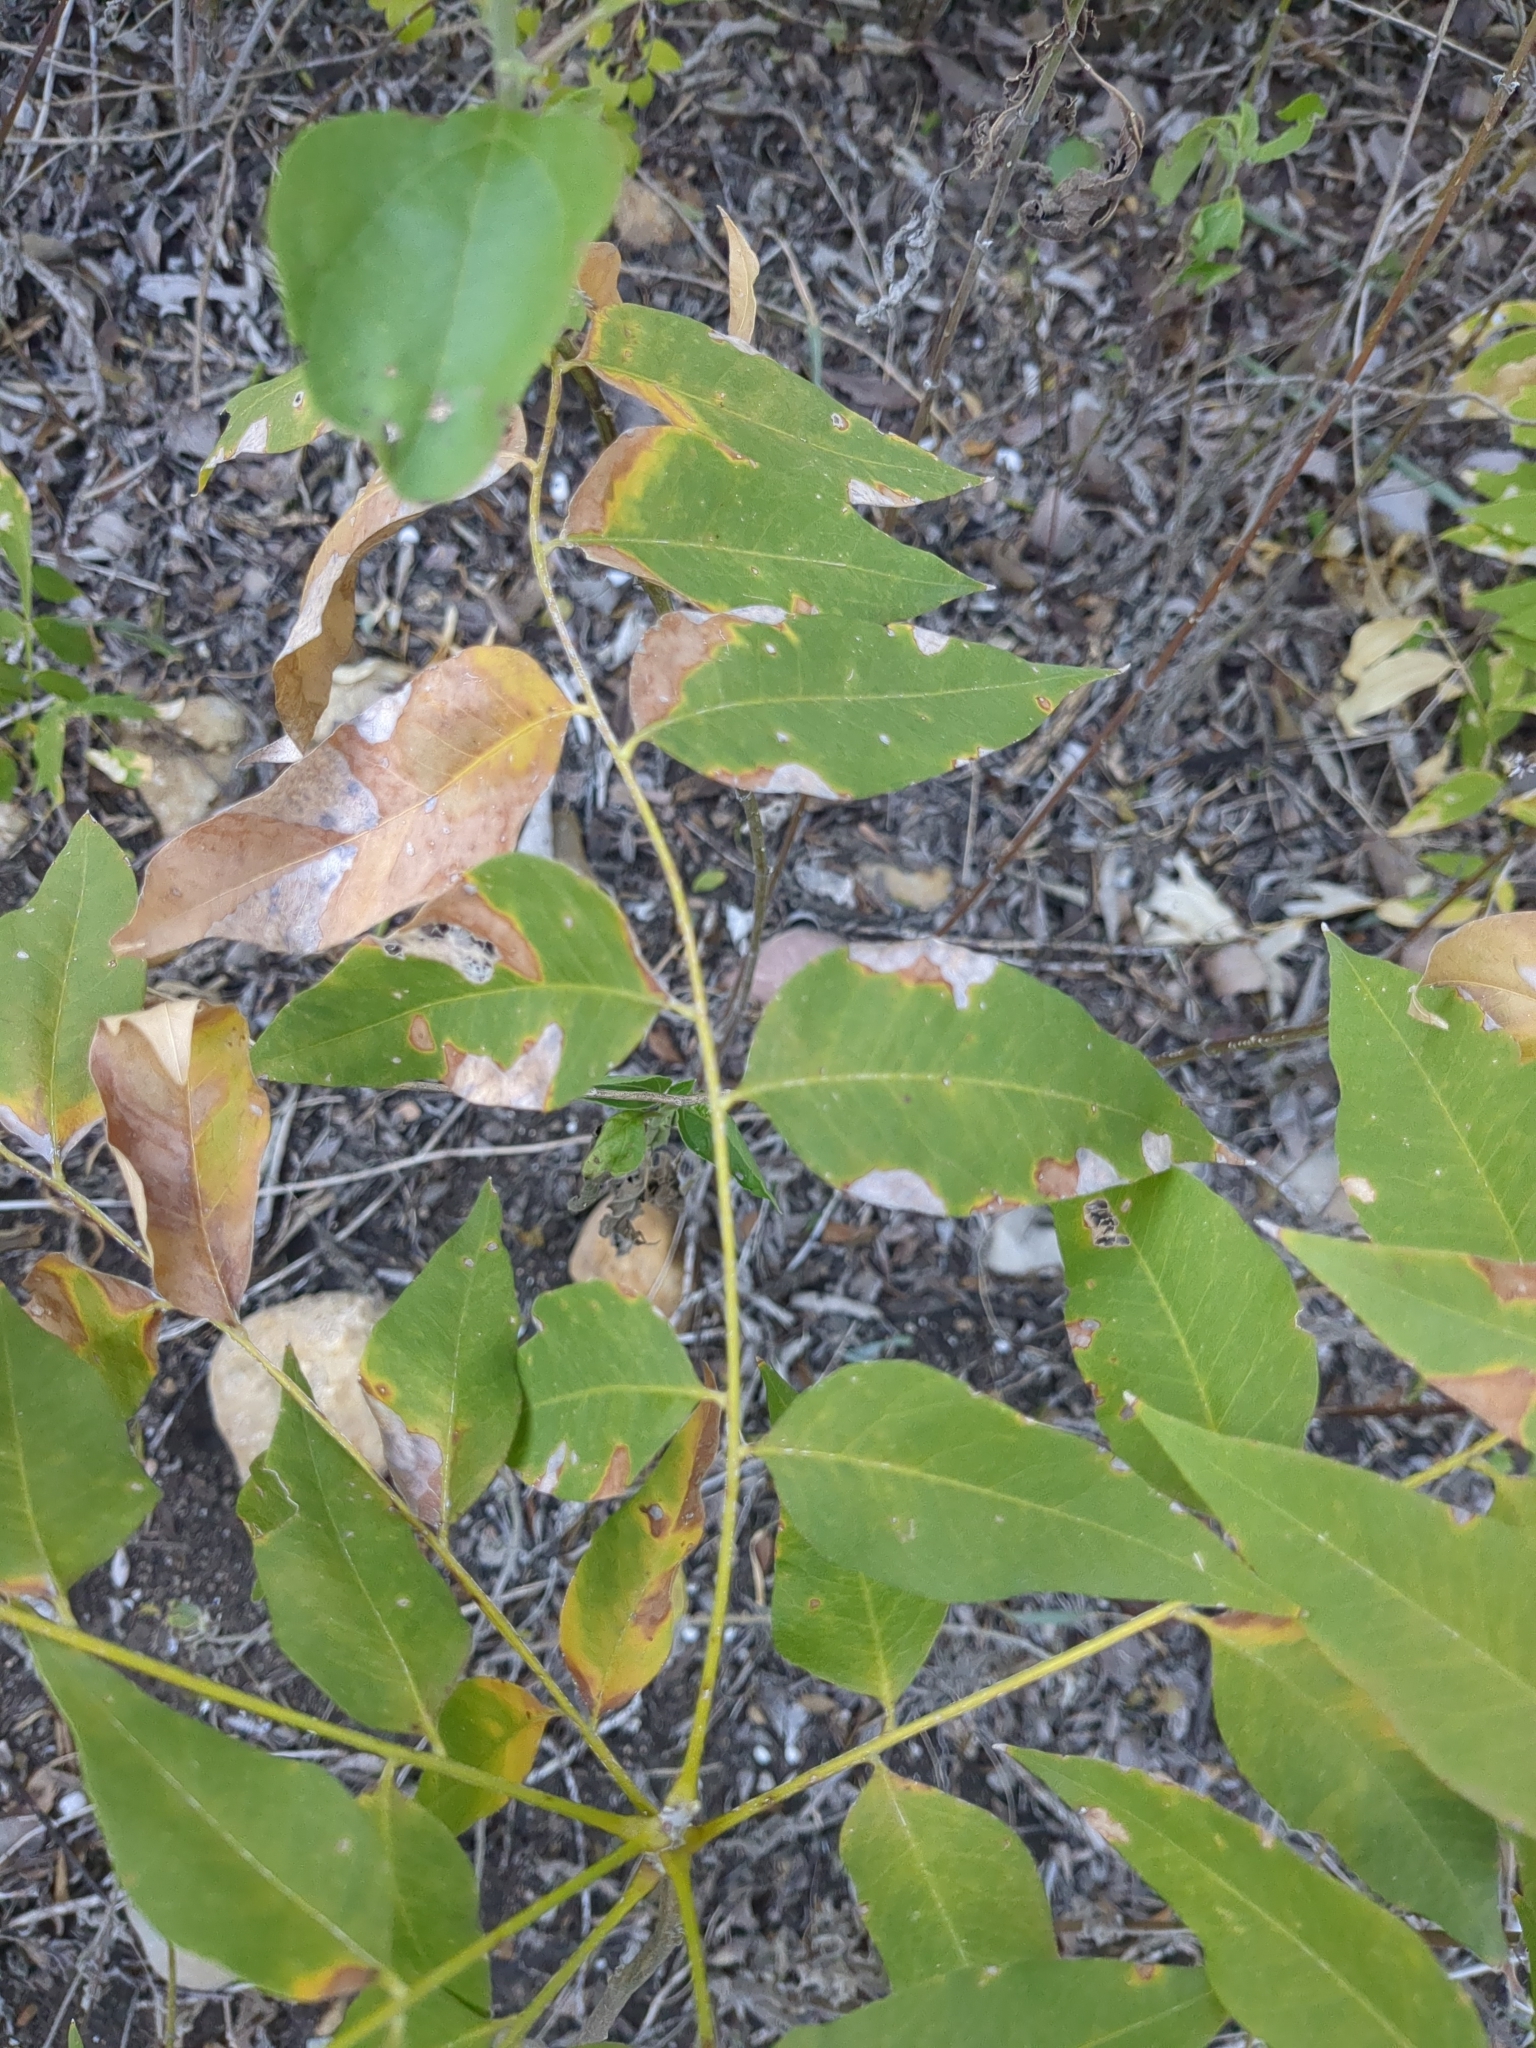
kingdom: Plantae
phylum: Tracheophyta
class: Magnoliopsida
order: Sapindales
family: Sapindaceae
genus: Sapindus
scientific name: Sapindus drummondii
